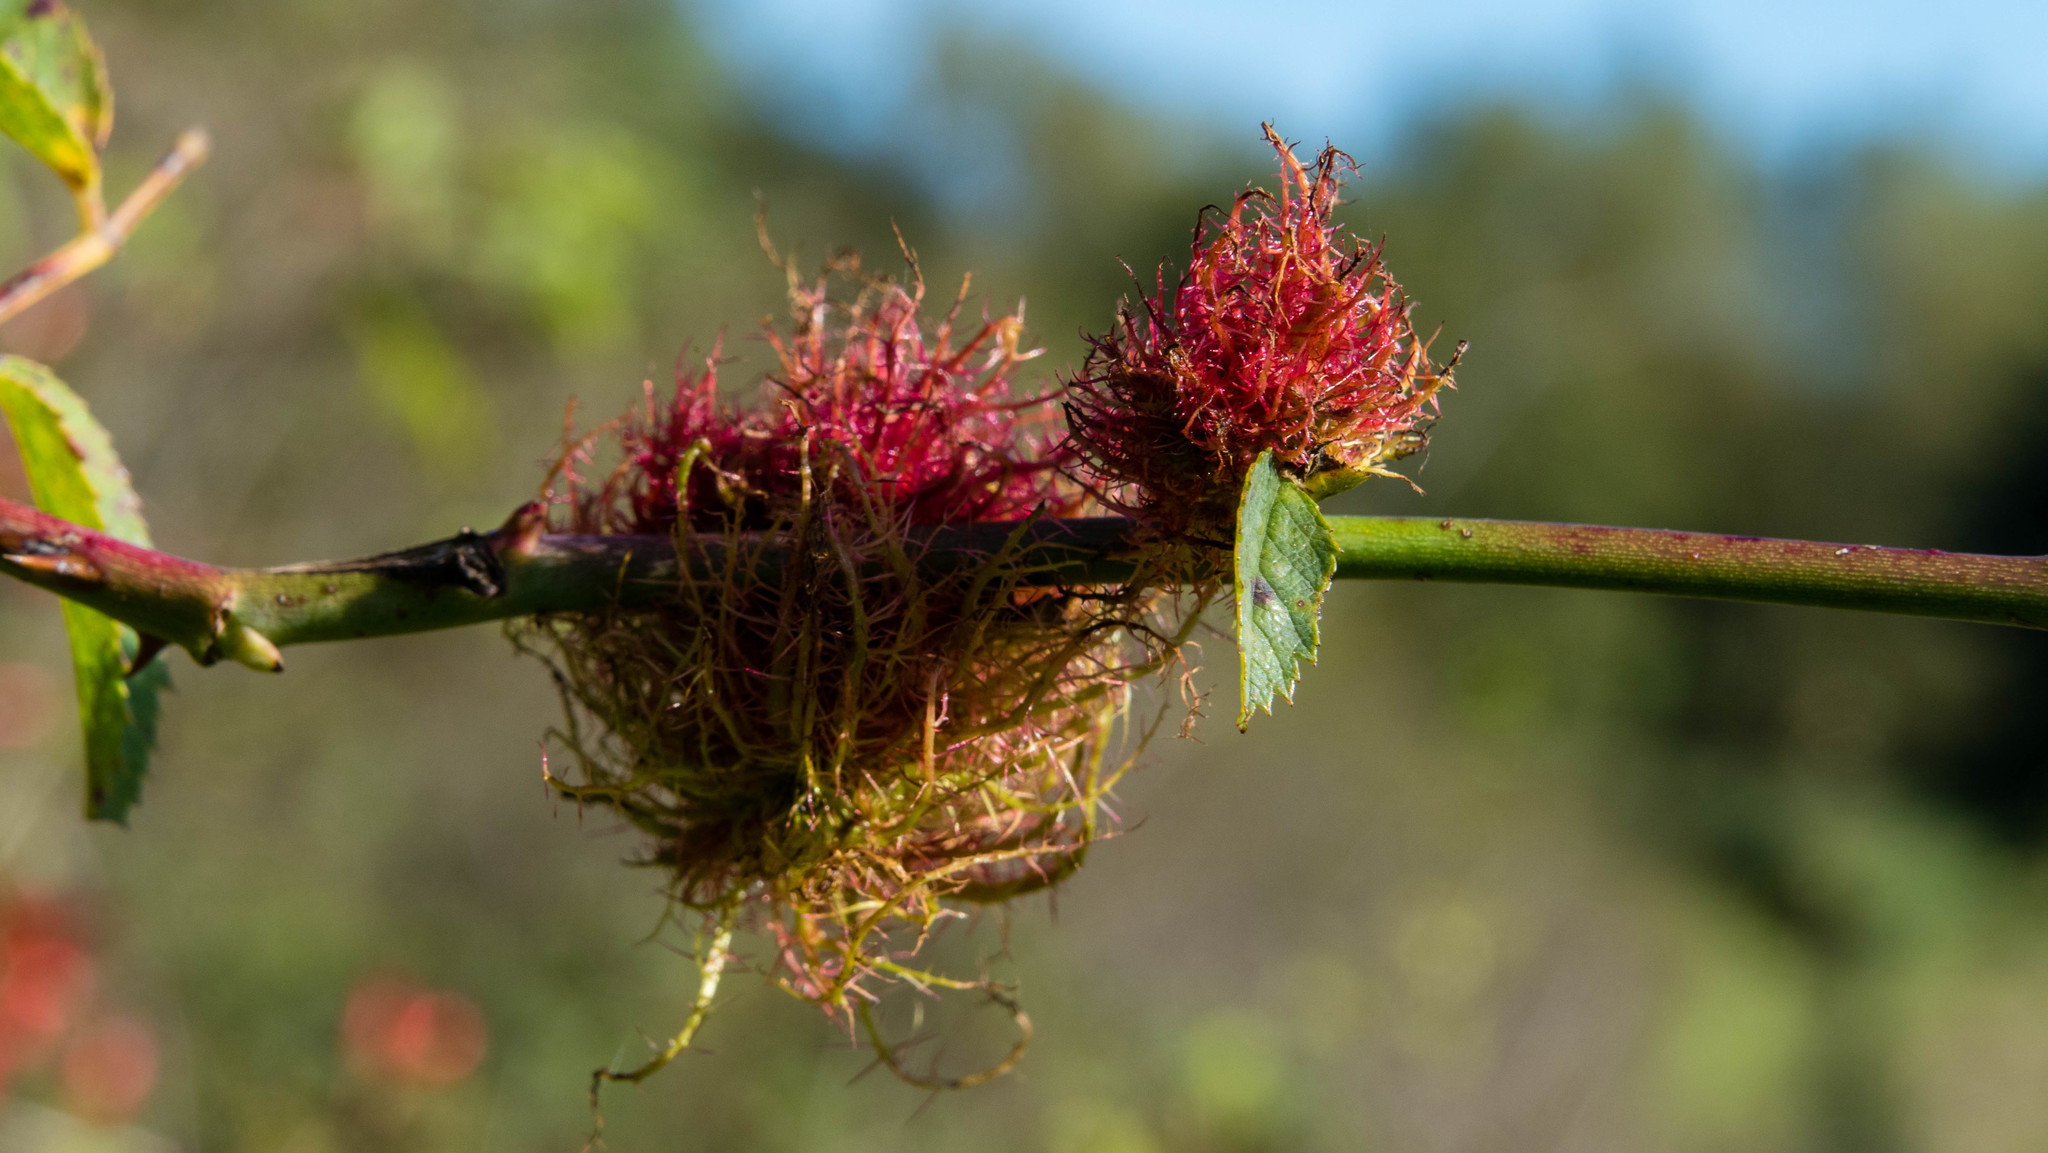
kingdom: Animalia
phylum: Arthropoda
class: Insecta
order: Hymenoptera
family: Cynipidae
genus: Diplolepis
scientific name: Diplolepis rosae
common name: Bedeguar gall
